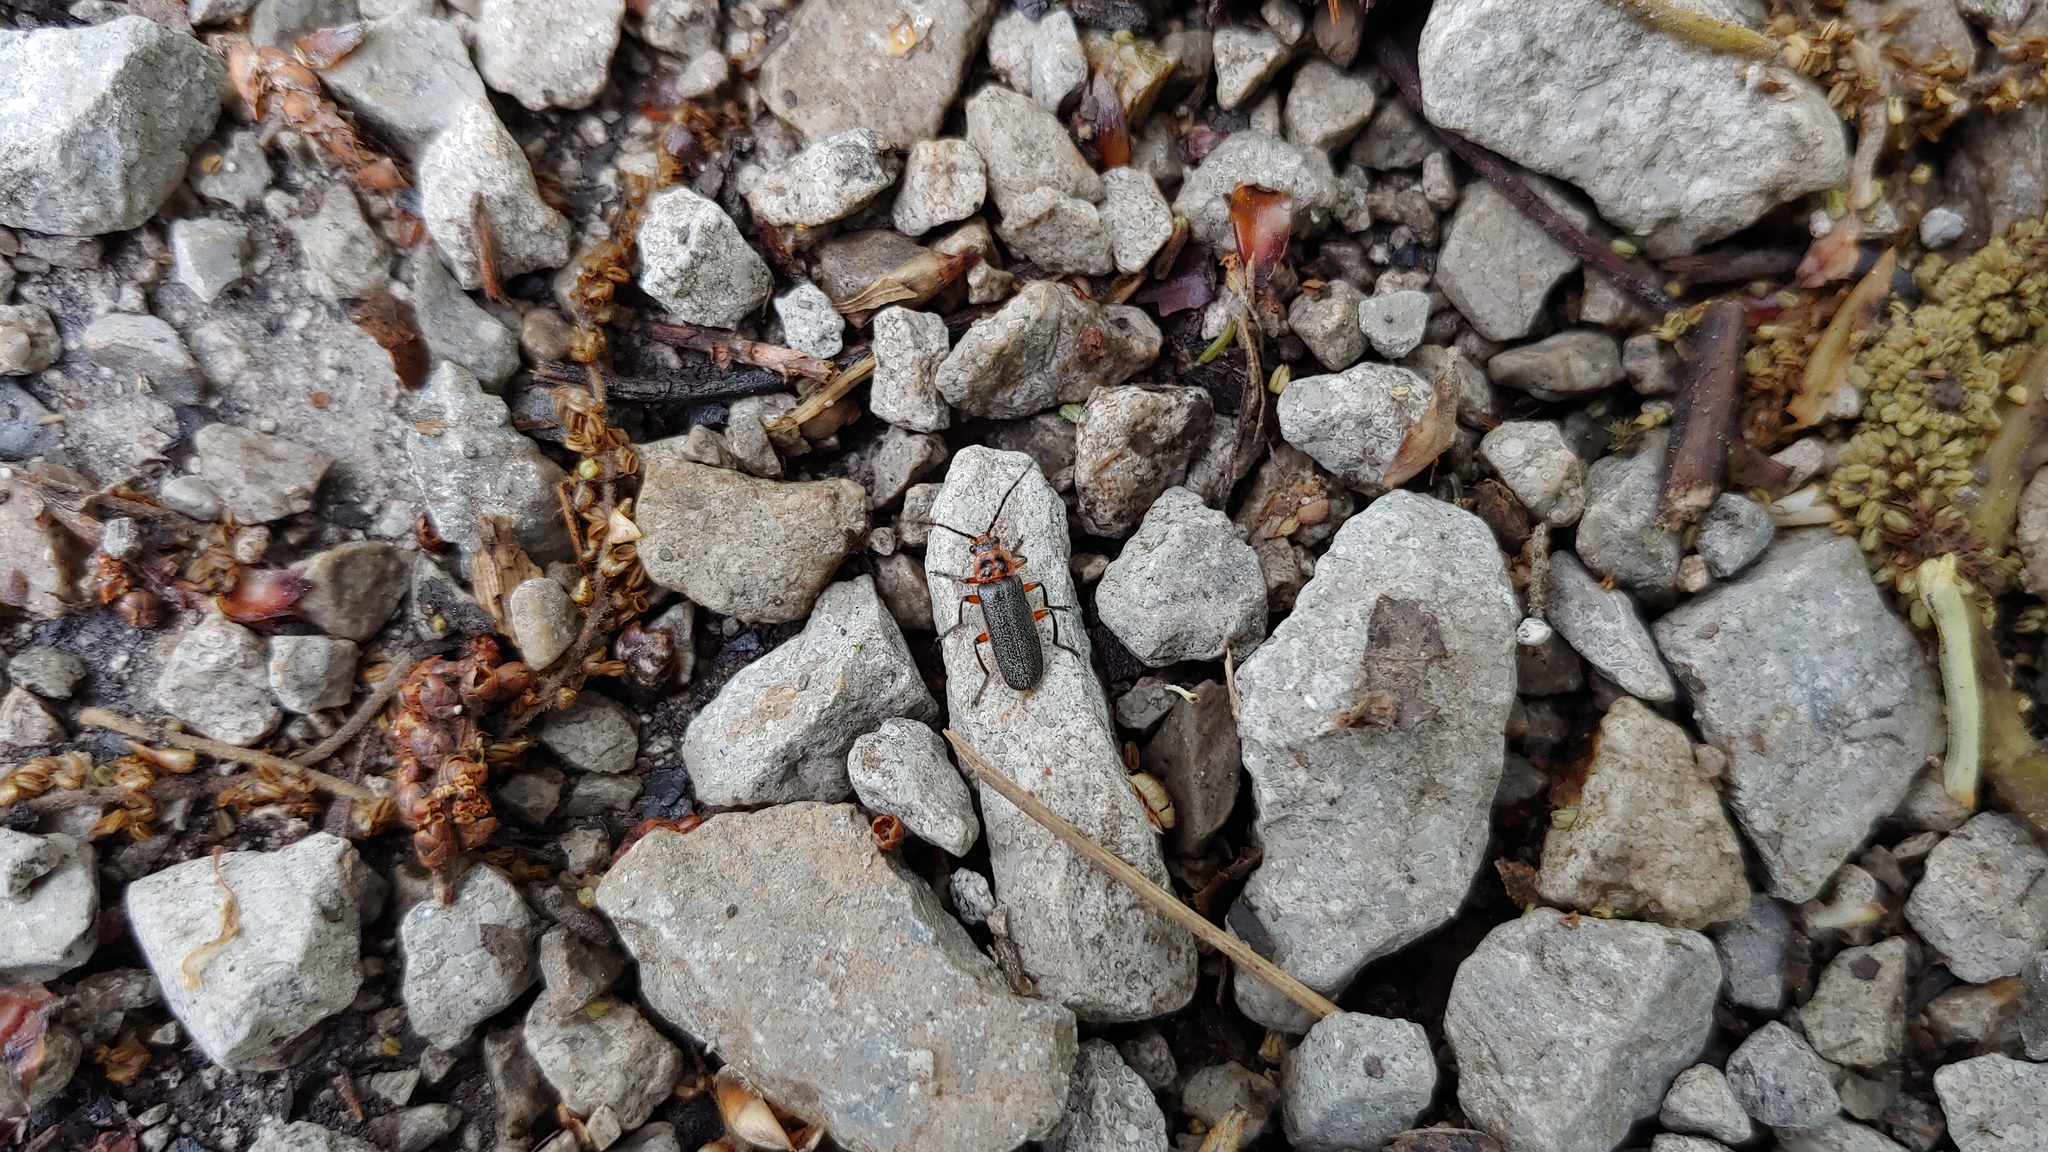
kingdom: Animalia
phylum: Arthropoda
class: Insecta
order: Coleoptera
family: Cantharidae
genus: Atalantycha
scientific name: Atalantycha bilineata
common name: Two-lined leatherwing
